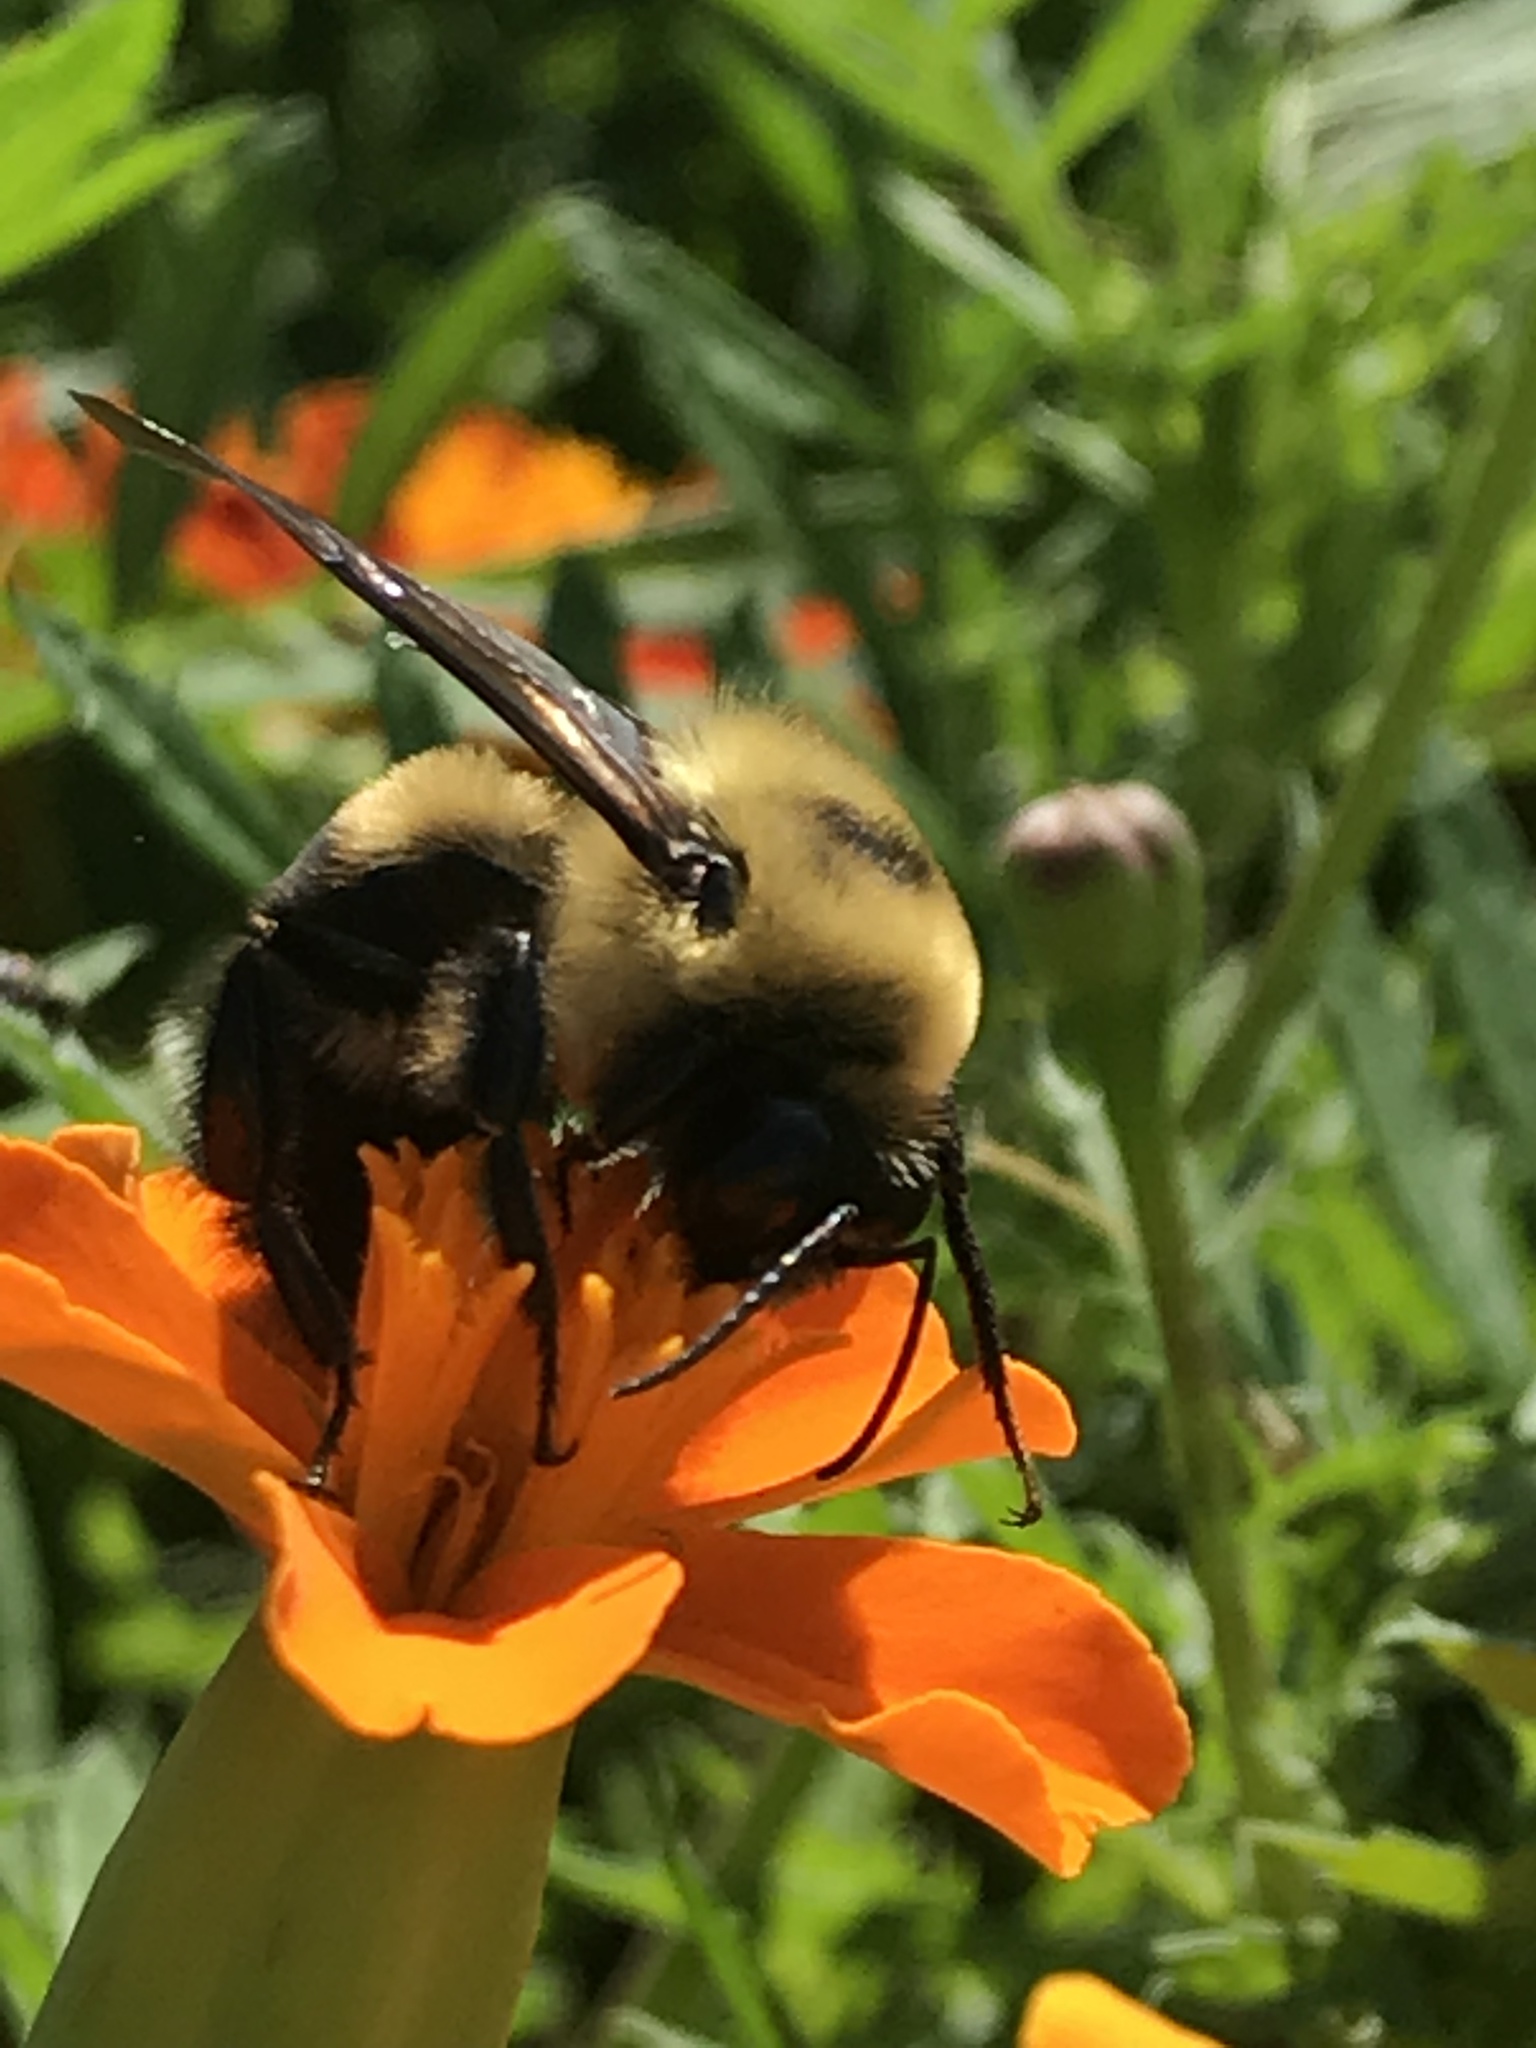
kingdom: Animalia
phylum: Arthropoda
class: Insecta
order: Hymenoptera
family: Apidae
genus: Bombus
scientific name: Bombus griseocollis
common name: Brown-belted bumble bee
